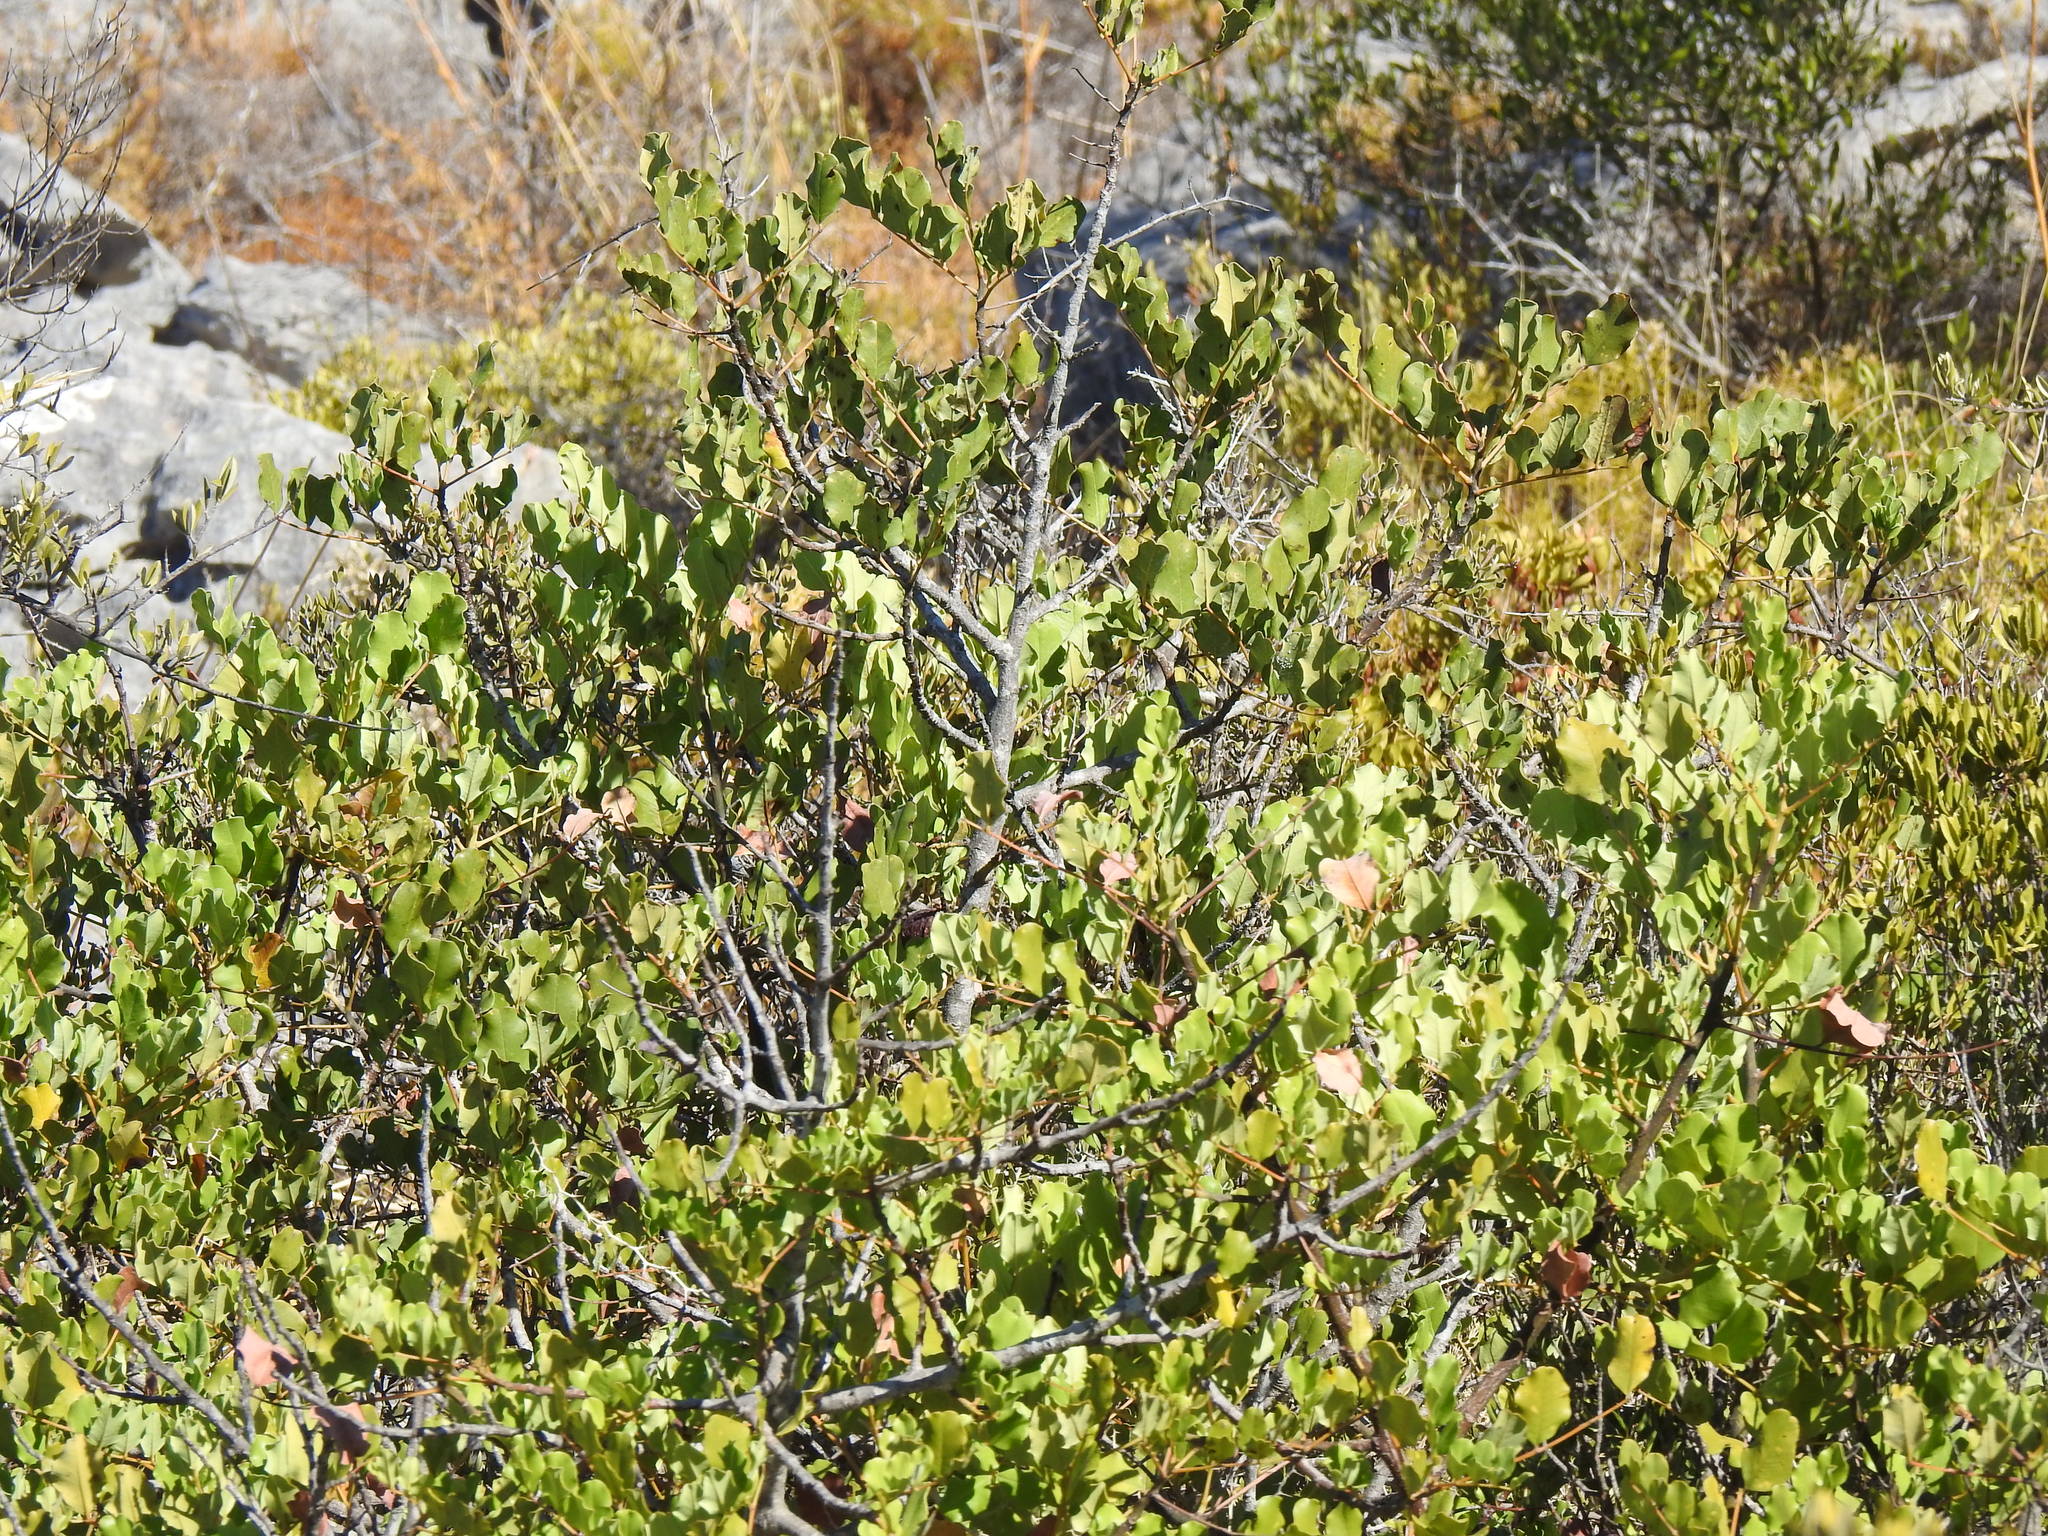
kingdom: Plantae
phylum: Tracheophyta
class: Magnoliopsida
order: Fabales
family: Fabaceae
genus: Ceratonia
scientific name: Ceratonia siliqua
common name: Carob
